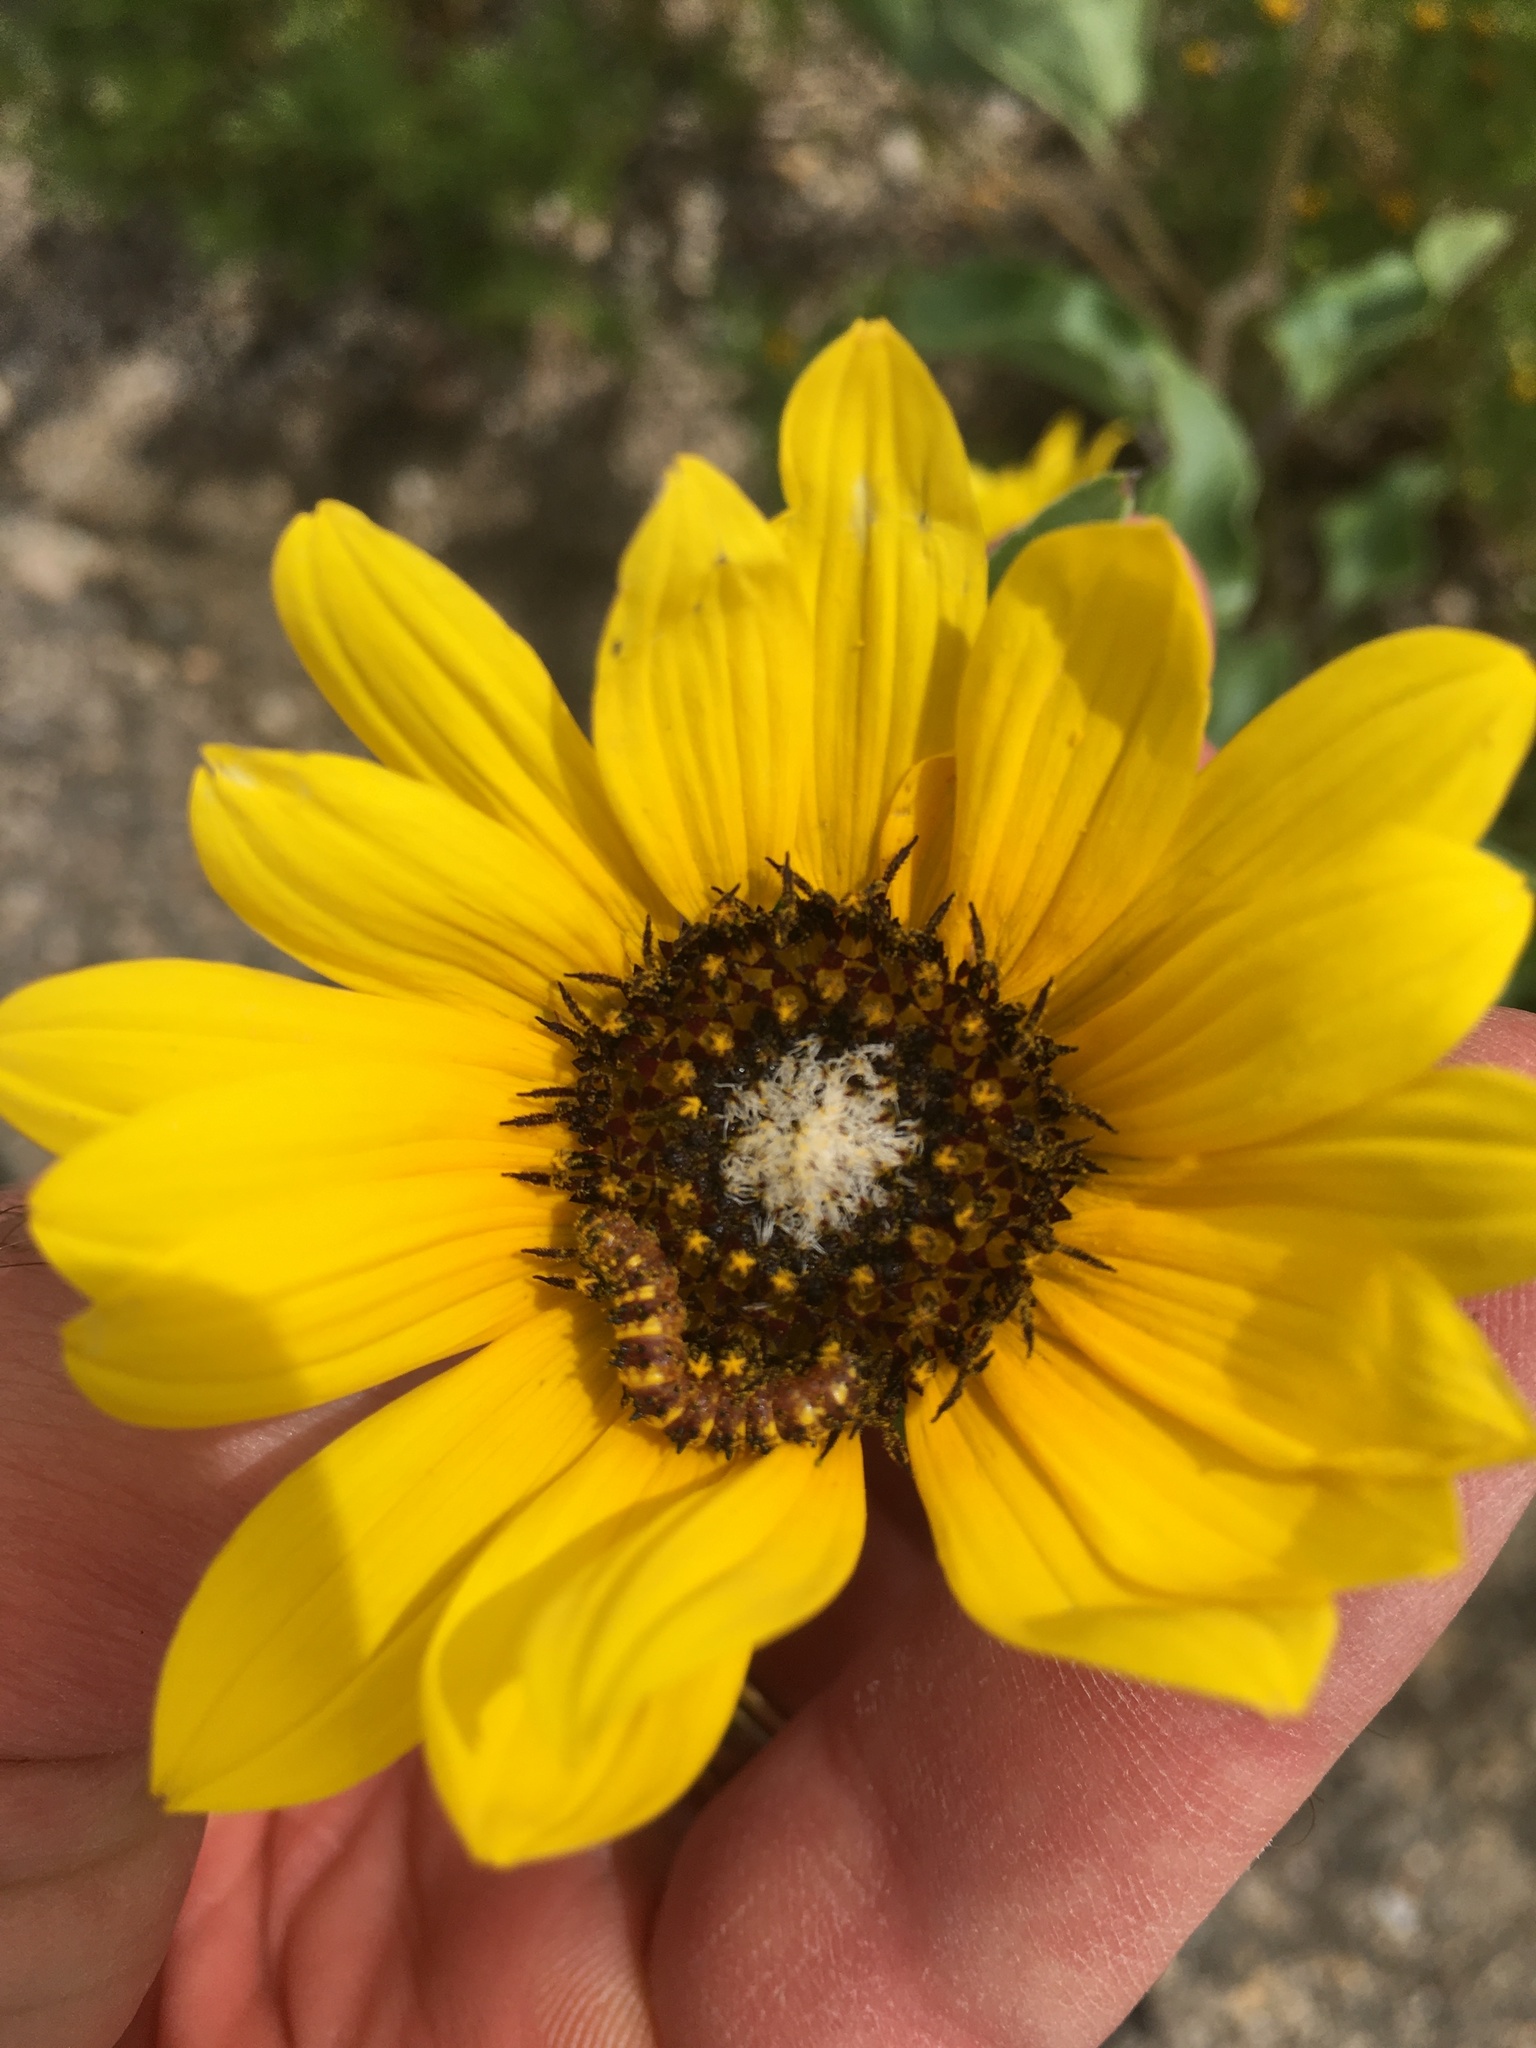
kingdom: Plantae
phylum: Tracheophyta
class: Magnoliopsida
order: Asterales
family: Asteraceae
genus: Helianthus
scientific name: Helianthus petiolaris
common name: Lesser sunflower
